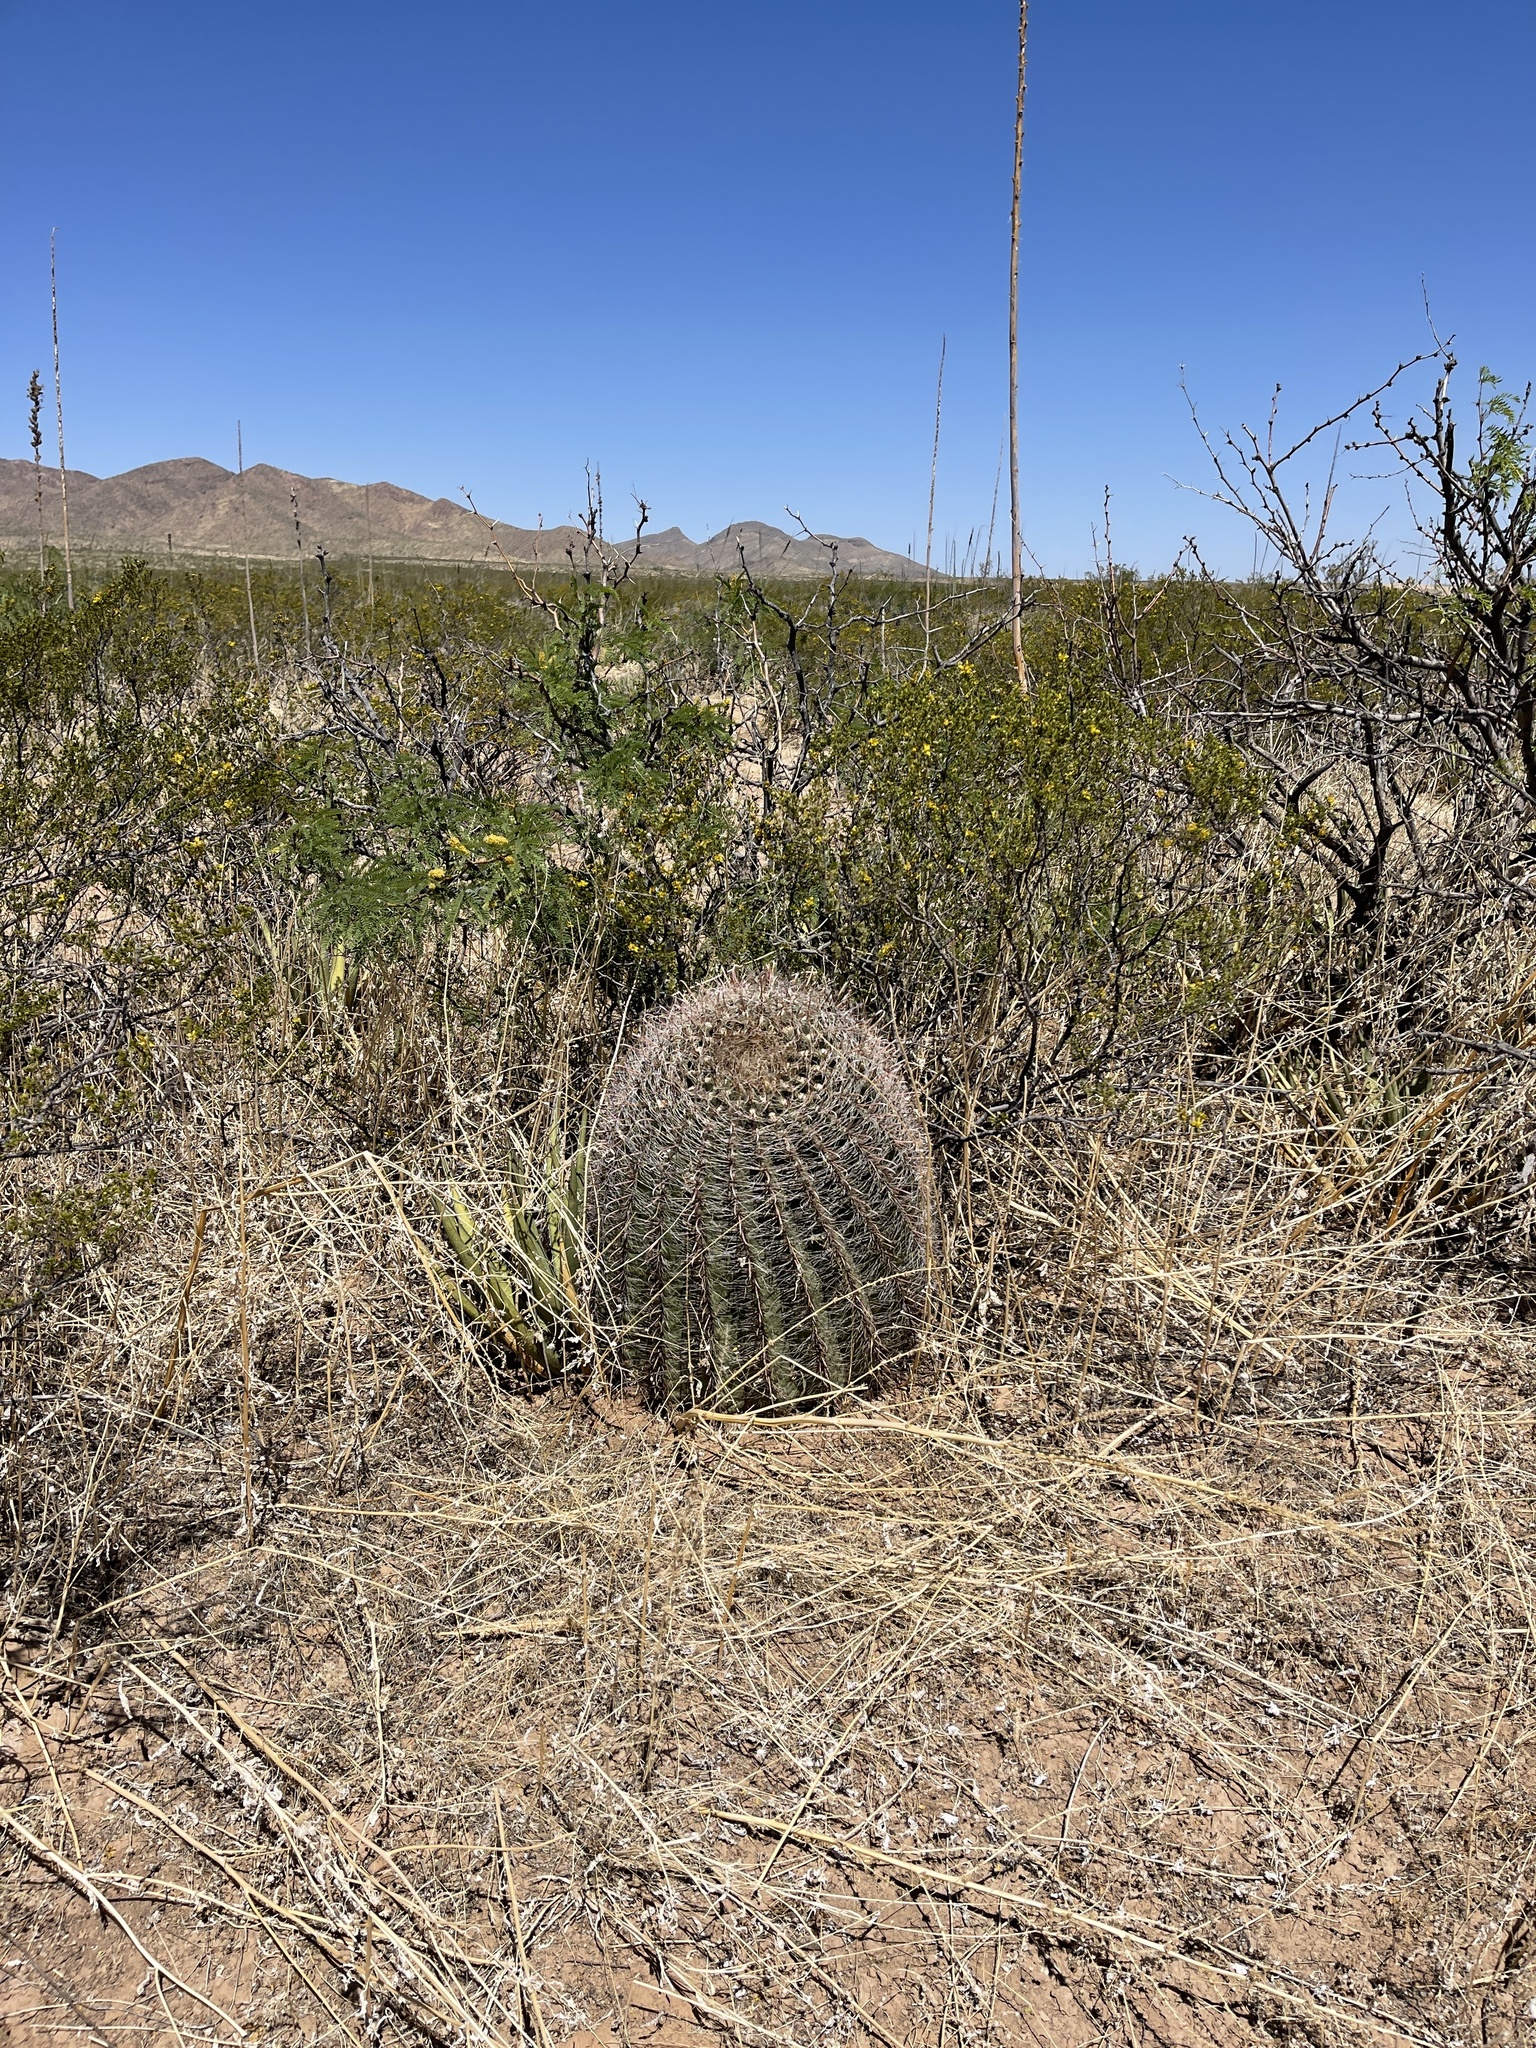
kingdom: Plantae
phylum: Tracheophyta
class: Magnoliopsida
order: Caryophyllales
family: Cactaceae
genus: Ferocactus
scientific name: Ferocactus wislizeni
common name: Candy barrel cactus
